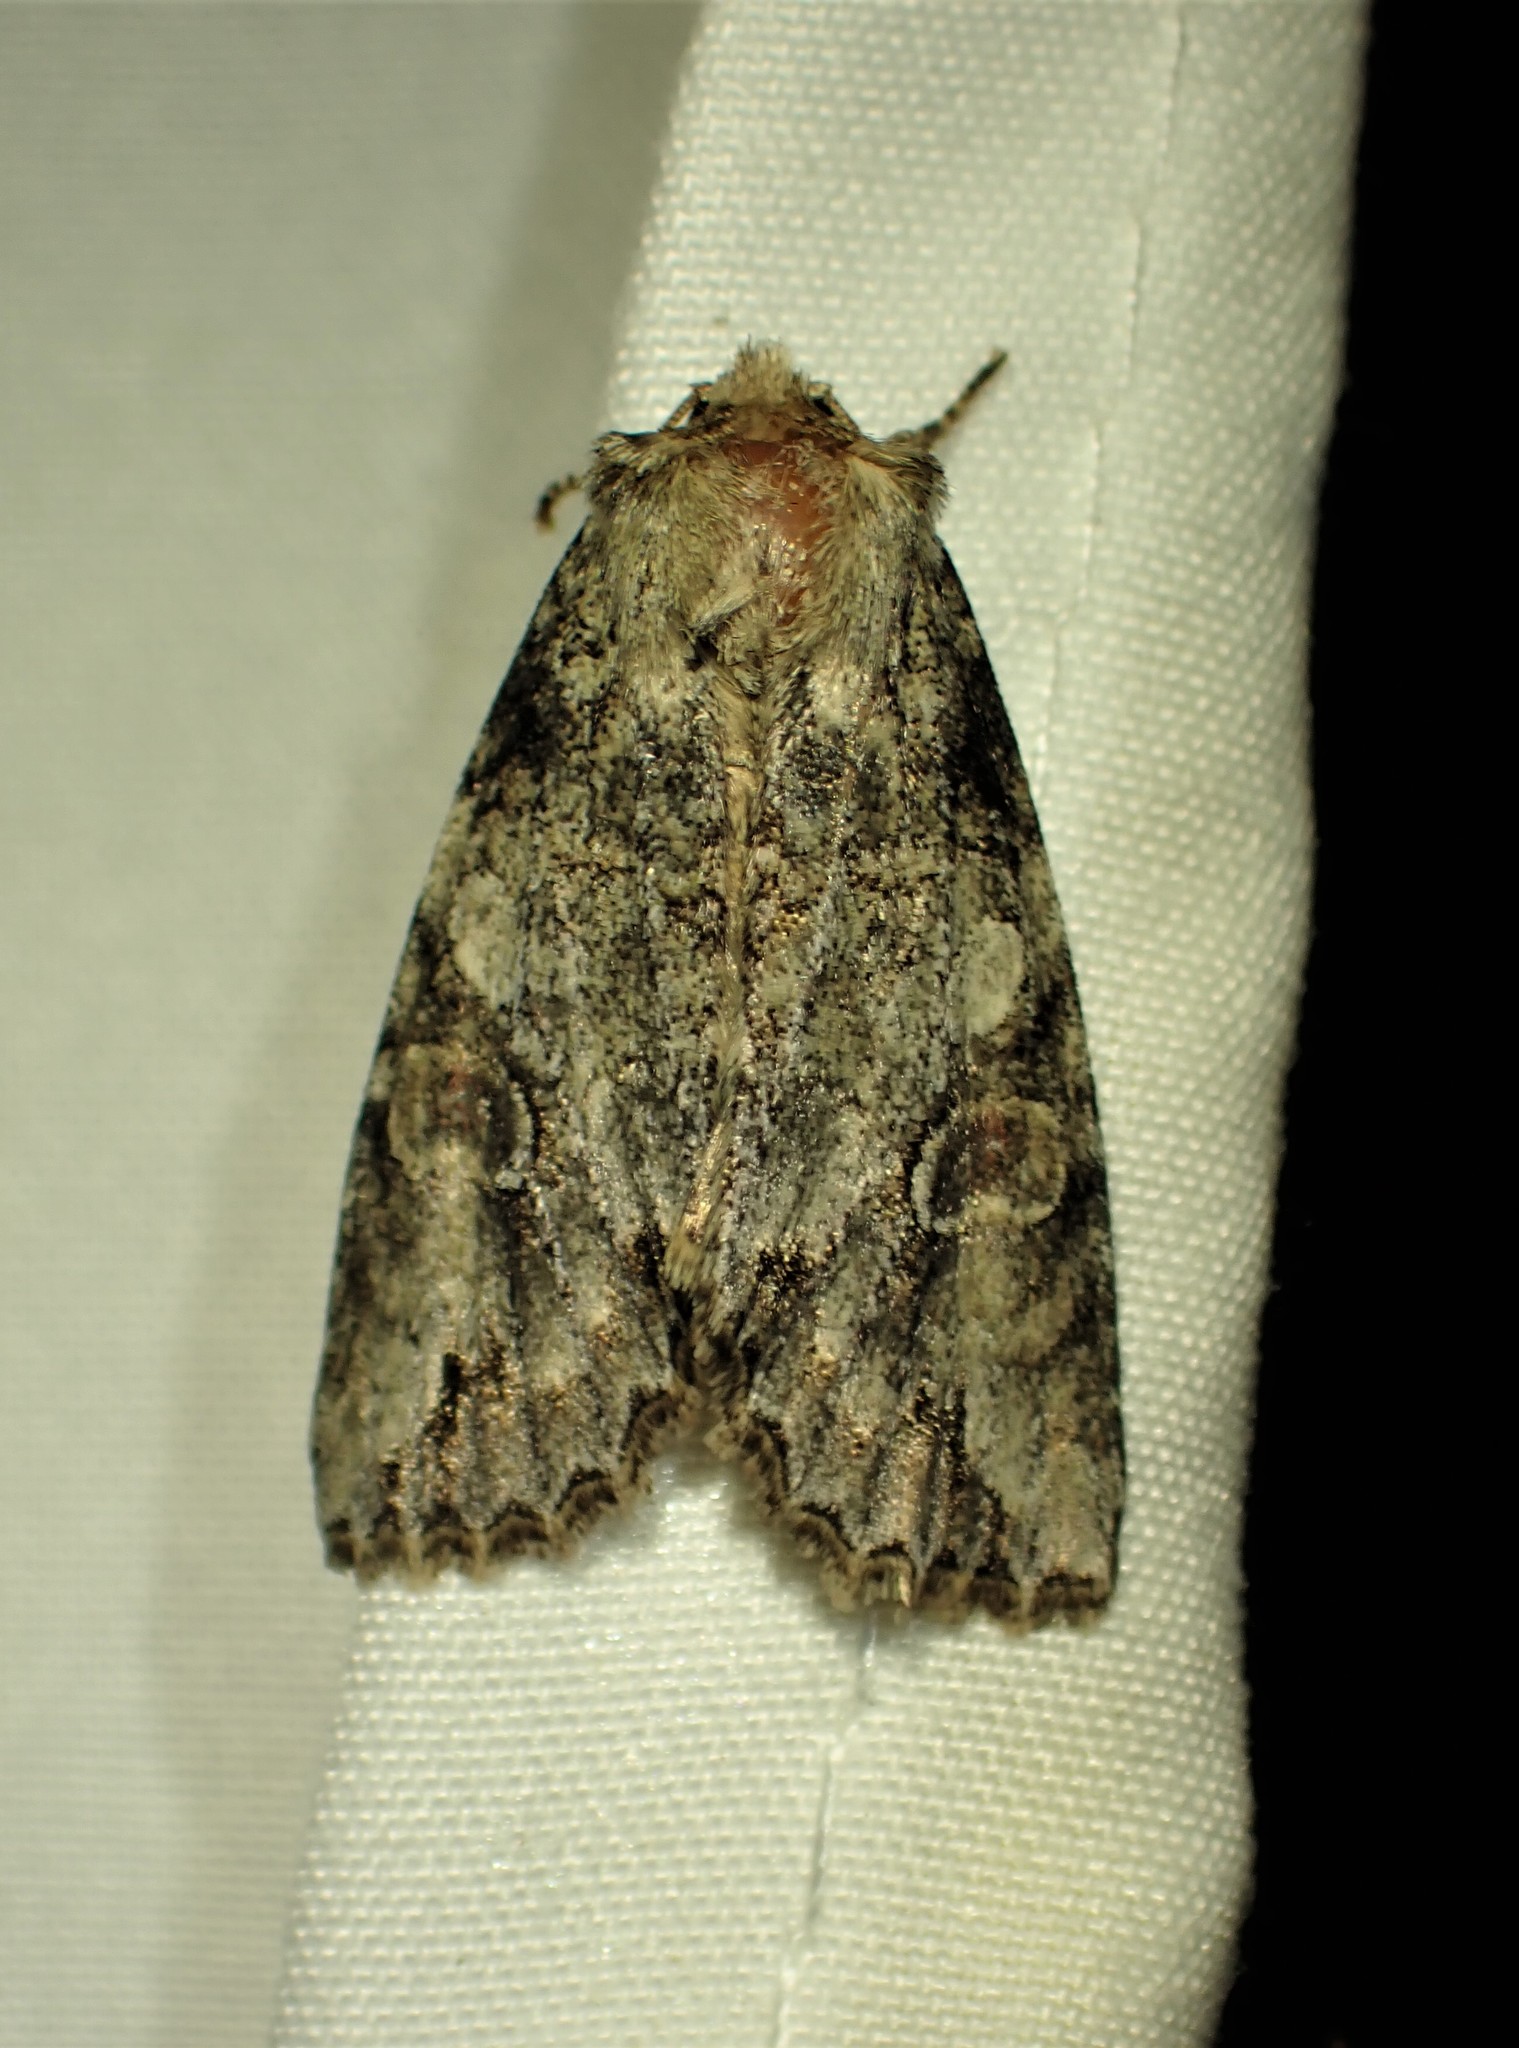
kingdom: Animalia
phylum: Arthropoda
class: Insecta
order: Lepidoptera
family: Noctuidae
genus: Achatia
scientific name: Achatia latex
